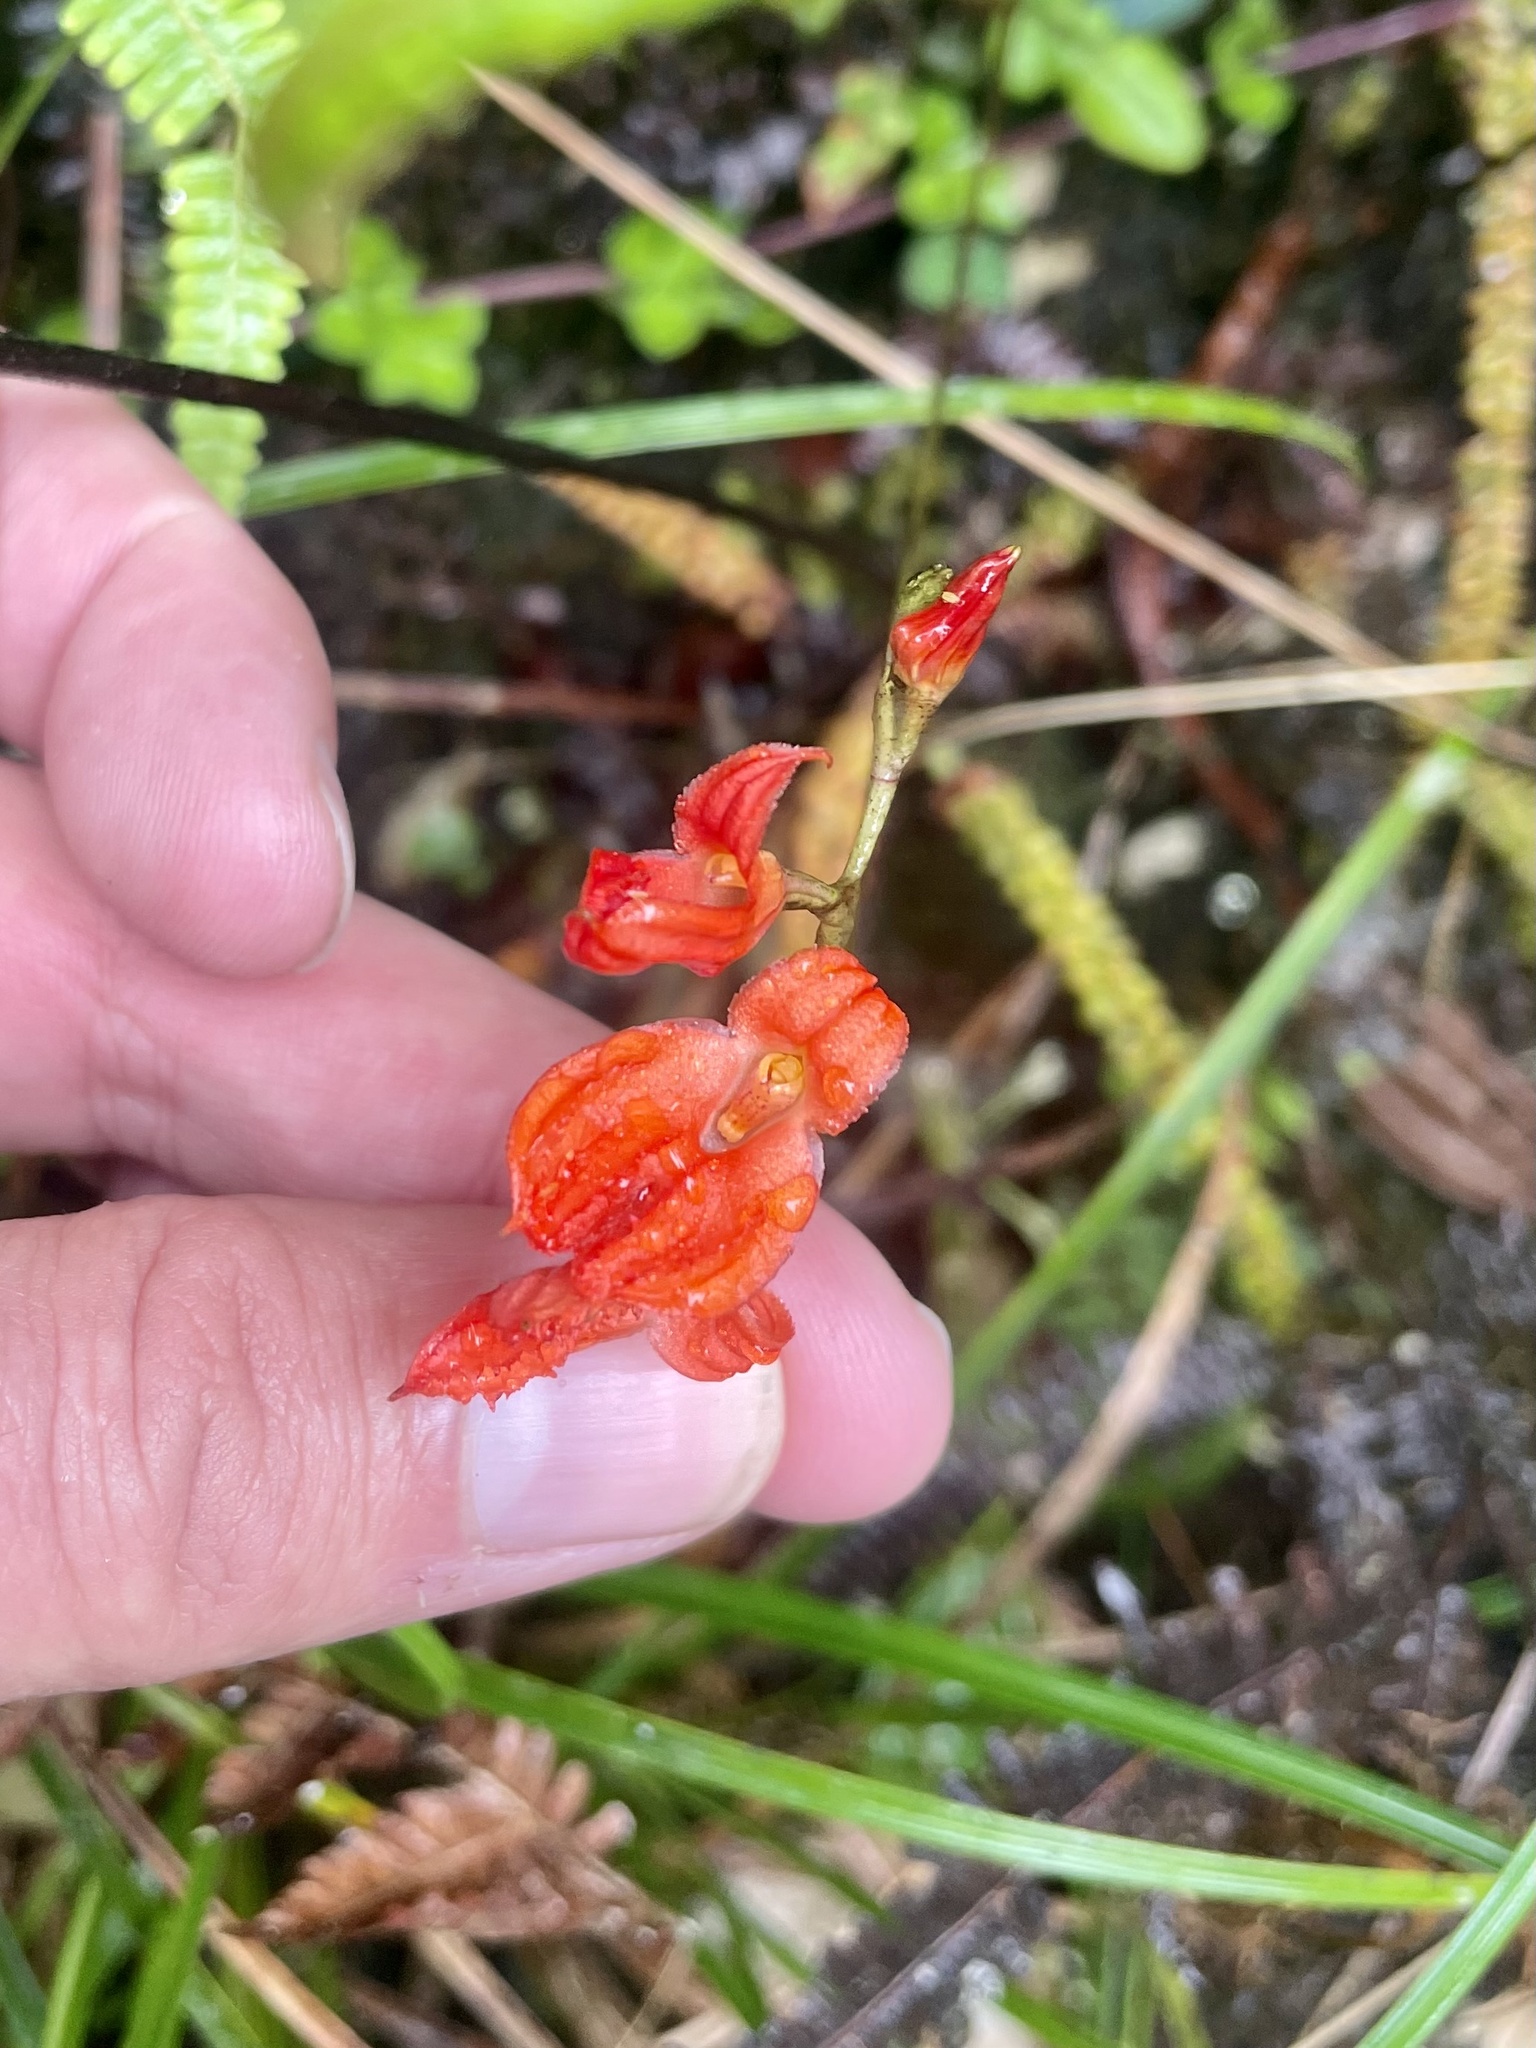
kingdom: Plantae
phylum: Tracheophyta
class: Liliopsida
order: Asparagales
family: Orchidaceae
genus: Porroglossum
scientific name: Porroglossum eduardi
